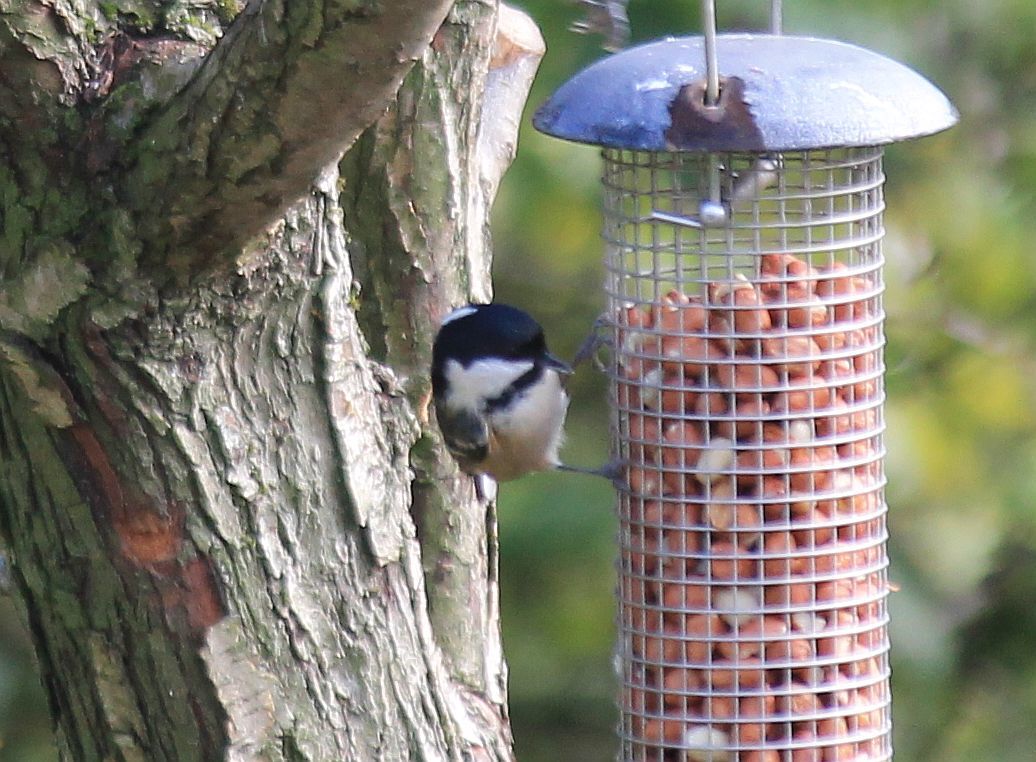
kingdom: Animalia
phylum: Chordata
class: Aves
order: Passeriformes
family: Paridae
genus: Periparus
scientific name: Periparus ater
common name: Coal tit
